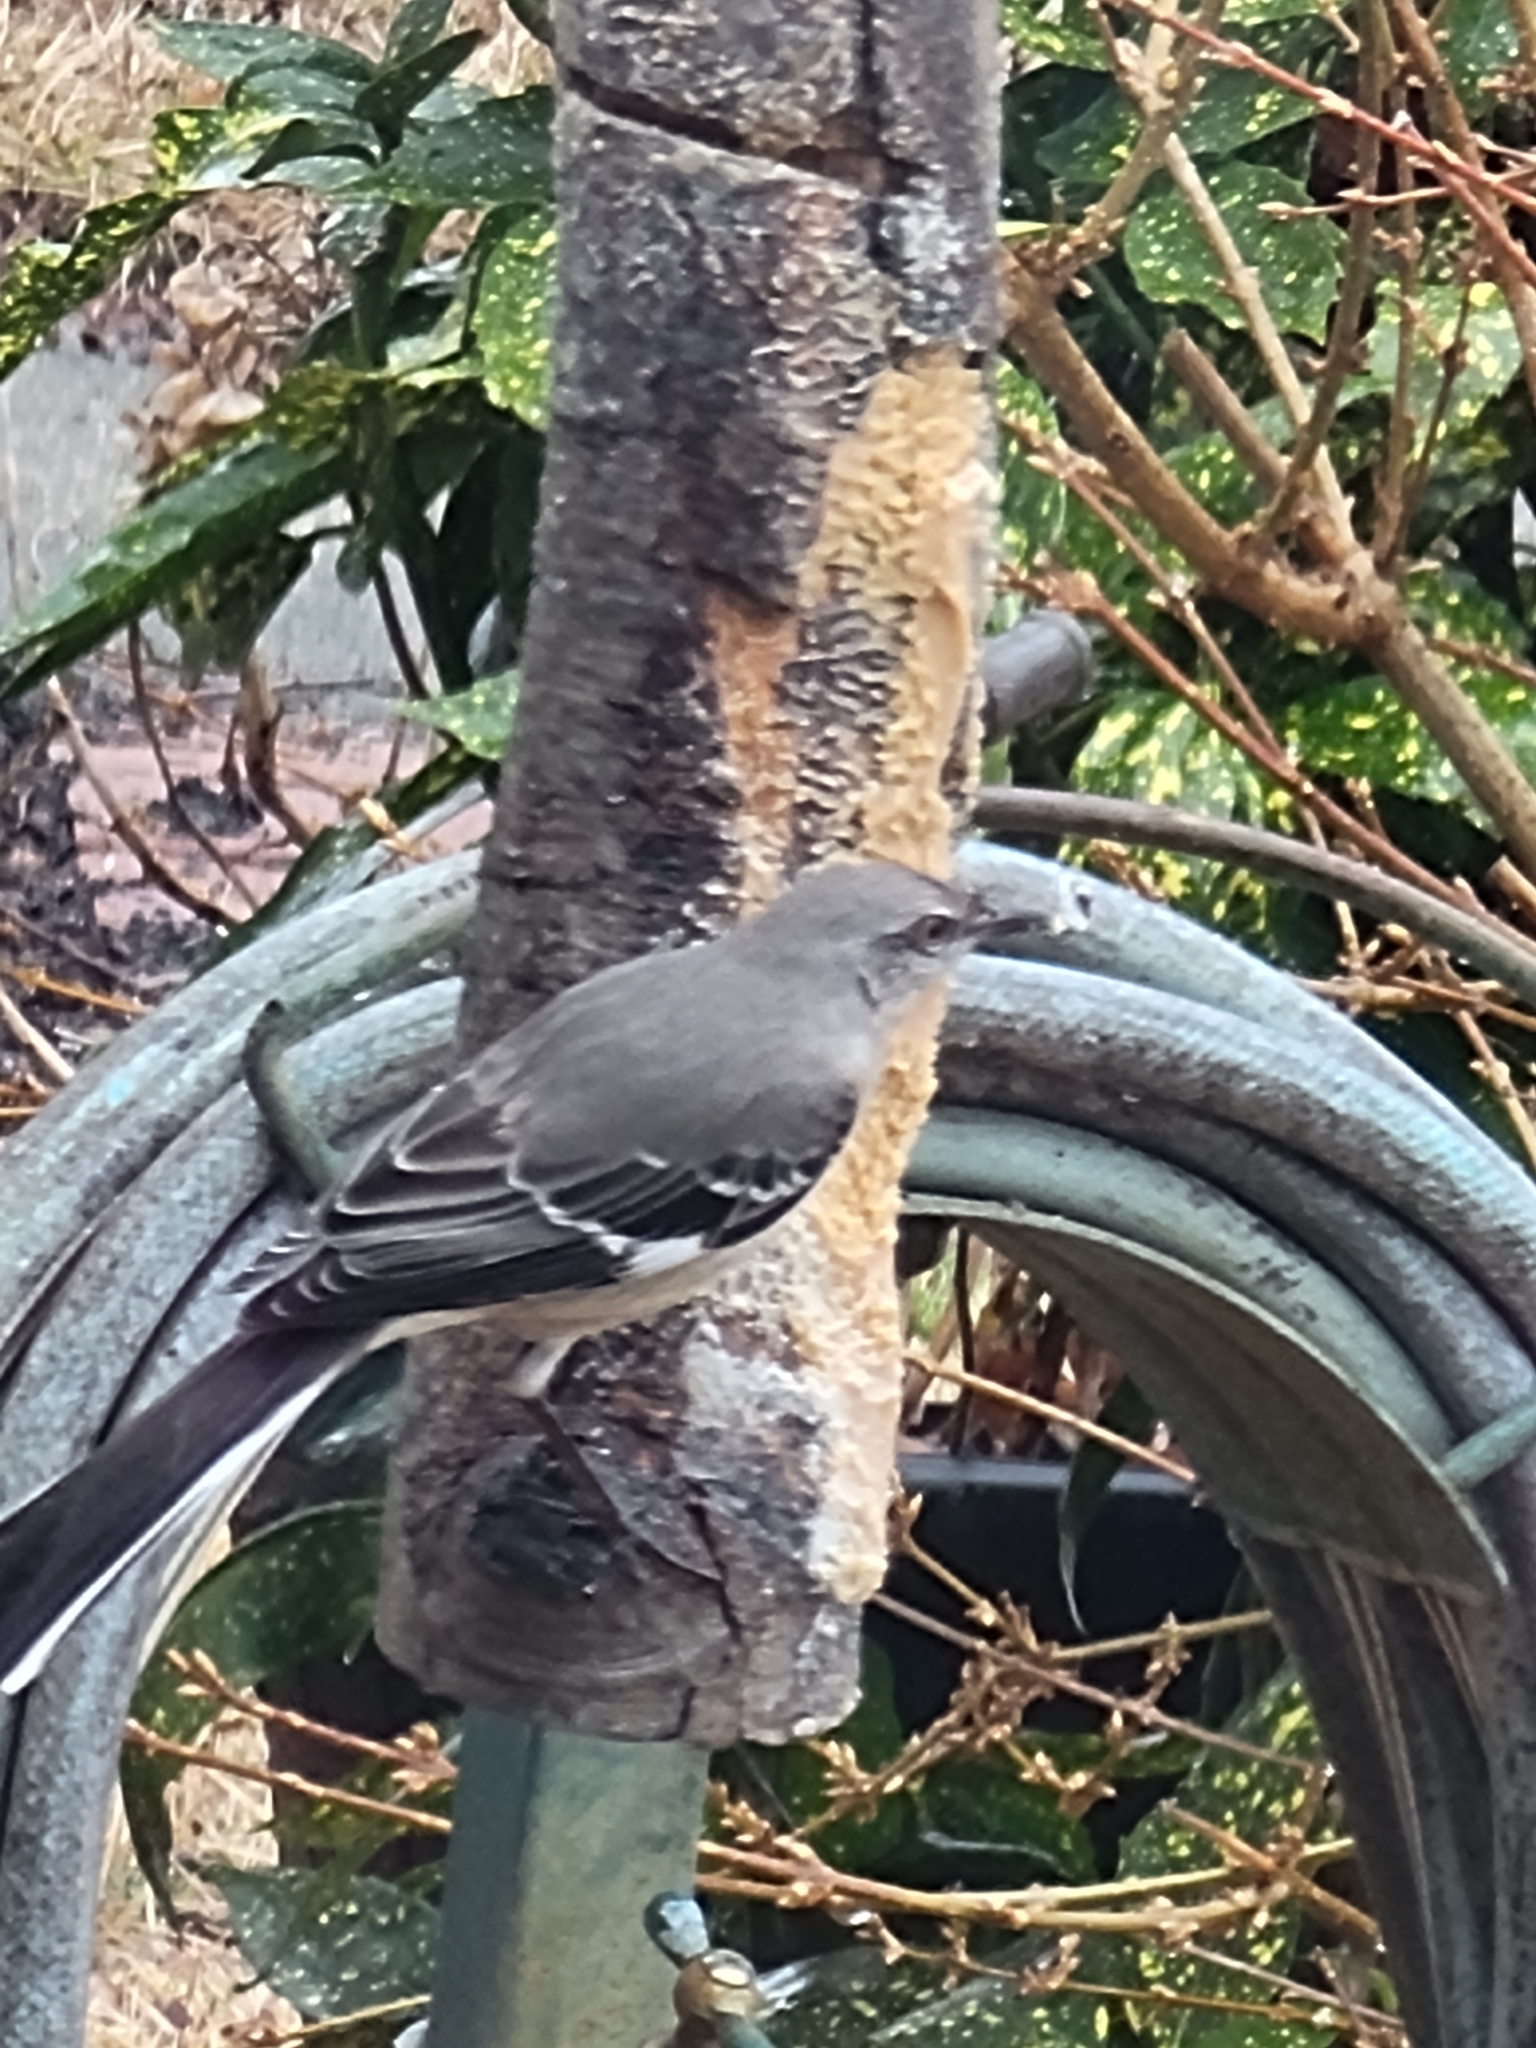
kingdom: Animalia
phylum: Chordata
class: Aves
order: Passeriformes
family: Mimidae
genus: Mimus
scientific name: Mimus polyglottos
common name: Northern mockingbird
